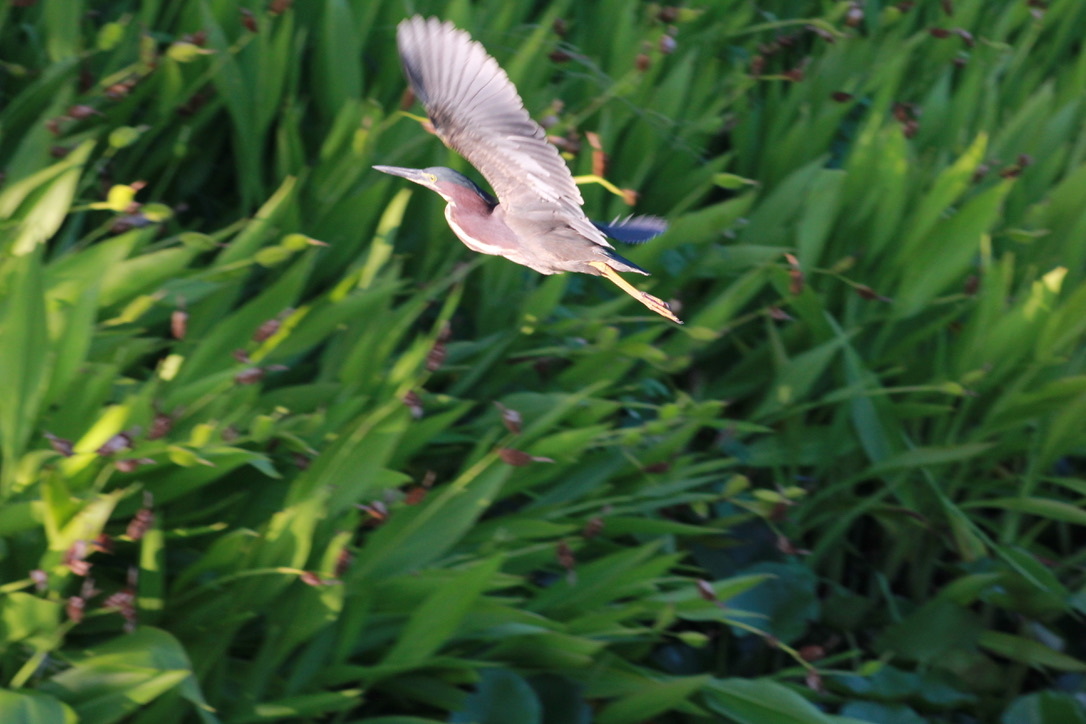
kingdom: Animalia
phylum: Chordata
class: Aves
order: Pelecaniformes
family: Ardeidae
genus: Butorides
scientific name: Butorides virescens
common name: Green heron
